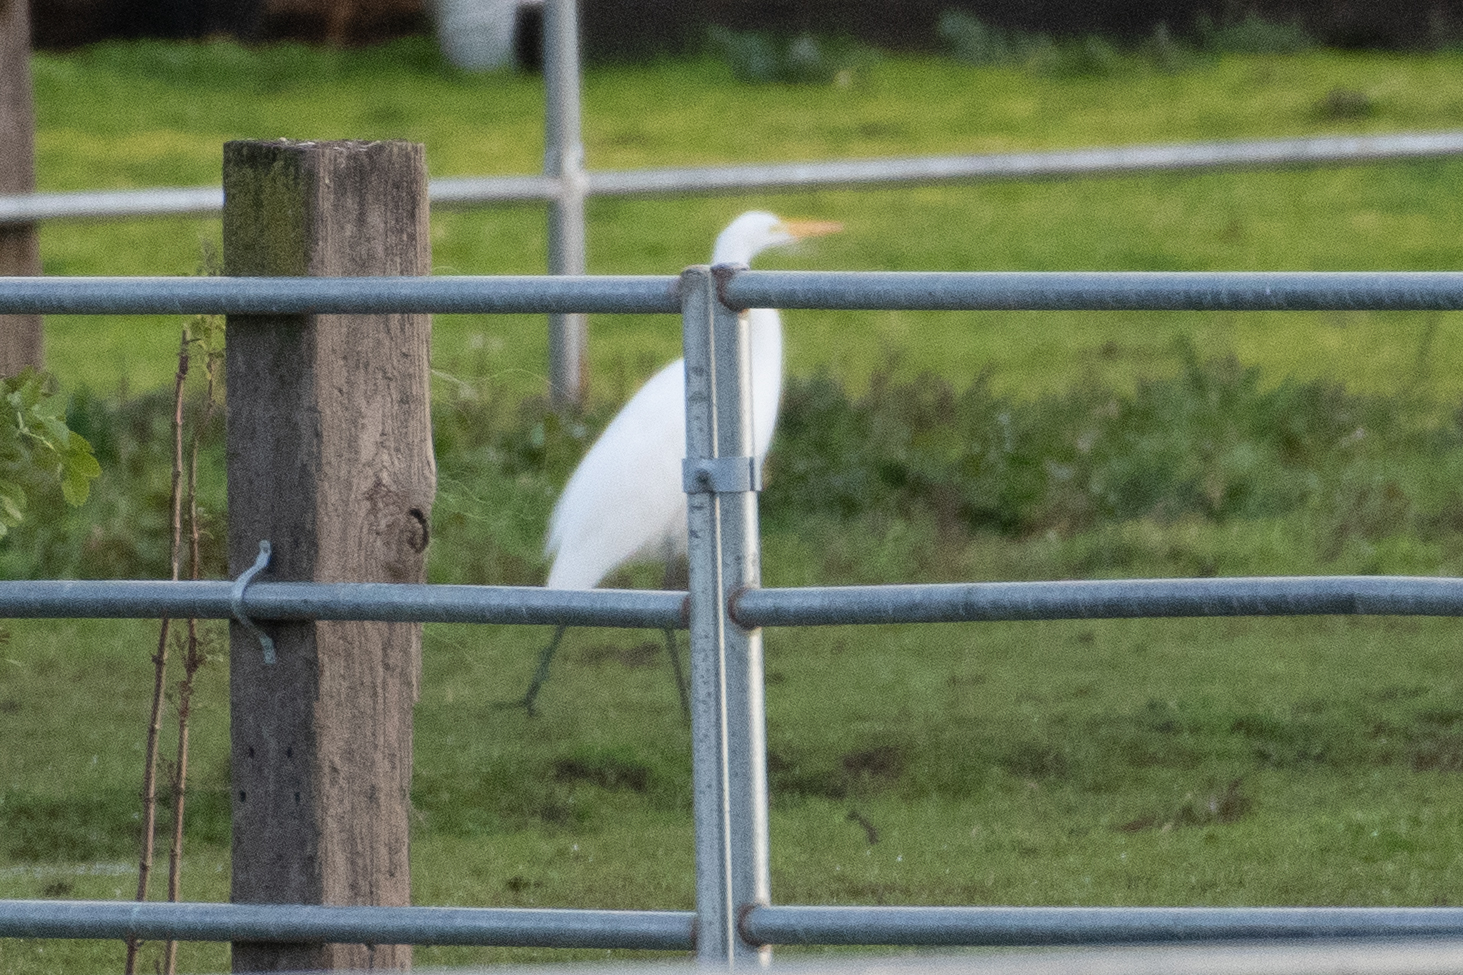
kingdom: Animalia
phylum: Chordata
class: Aves
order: Pelecaniformes
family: Ardeidae
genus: Ardea
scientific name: Ardea alba
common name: Great egret
